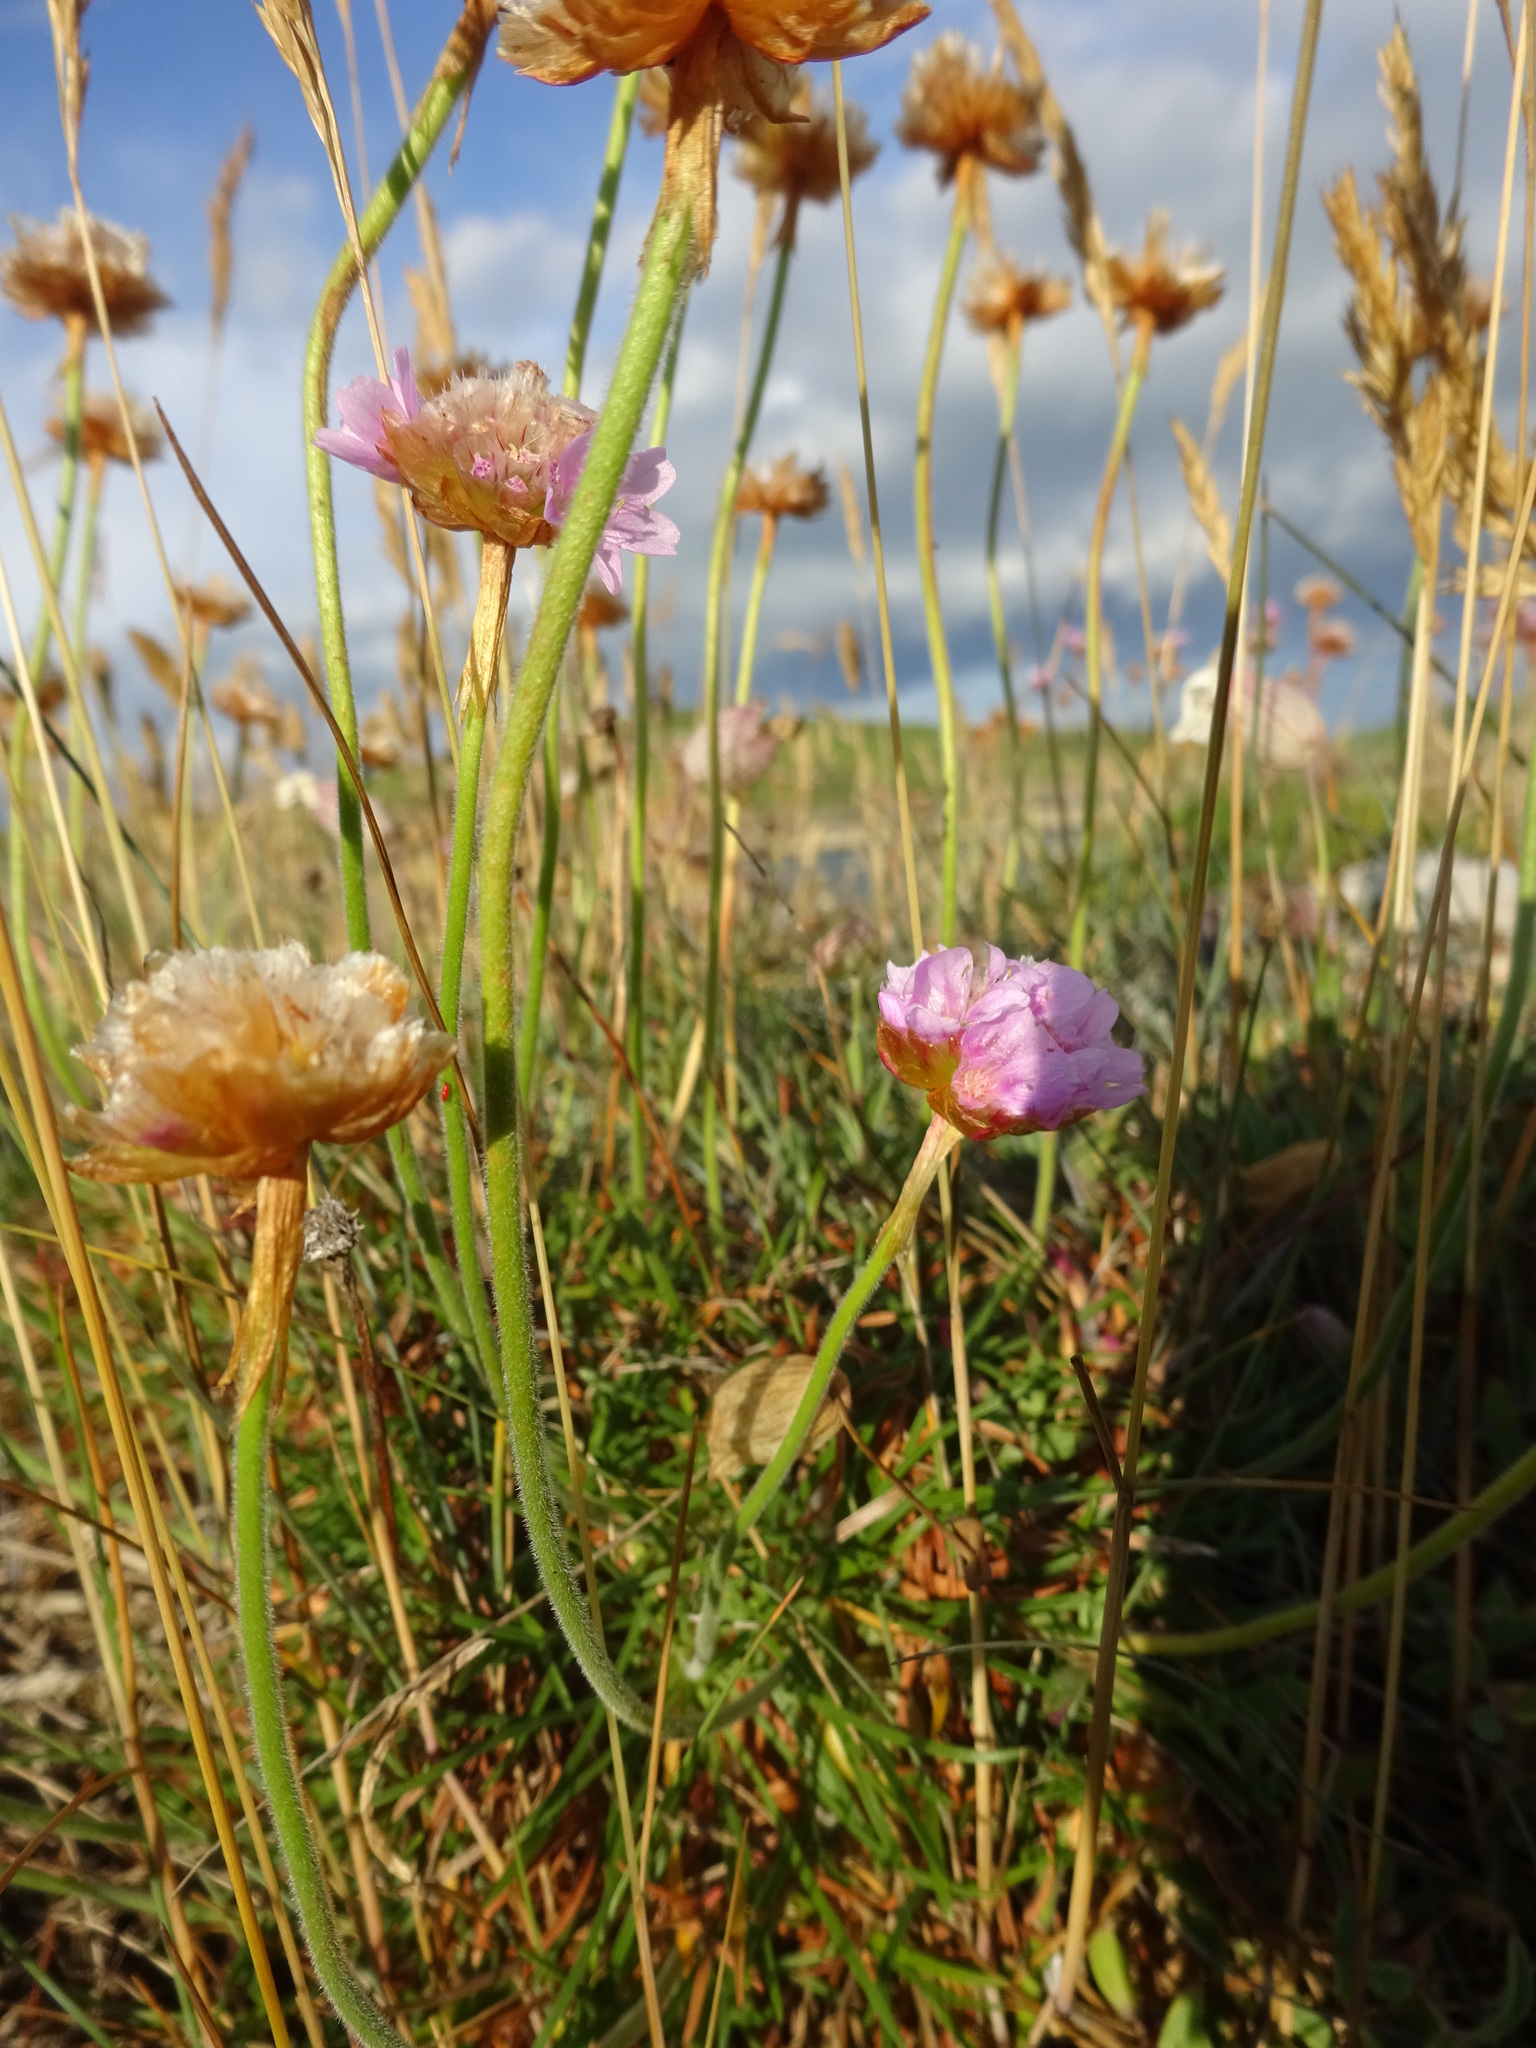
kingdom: Plantae
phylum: Tracheophyta
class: Magnoliopsida
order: Caryophyllales
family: Plumbaginaceae
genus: Armeria
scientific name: Armeria maritima
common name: Thrift
